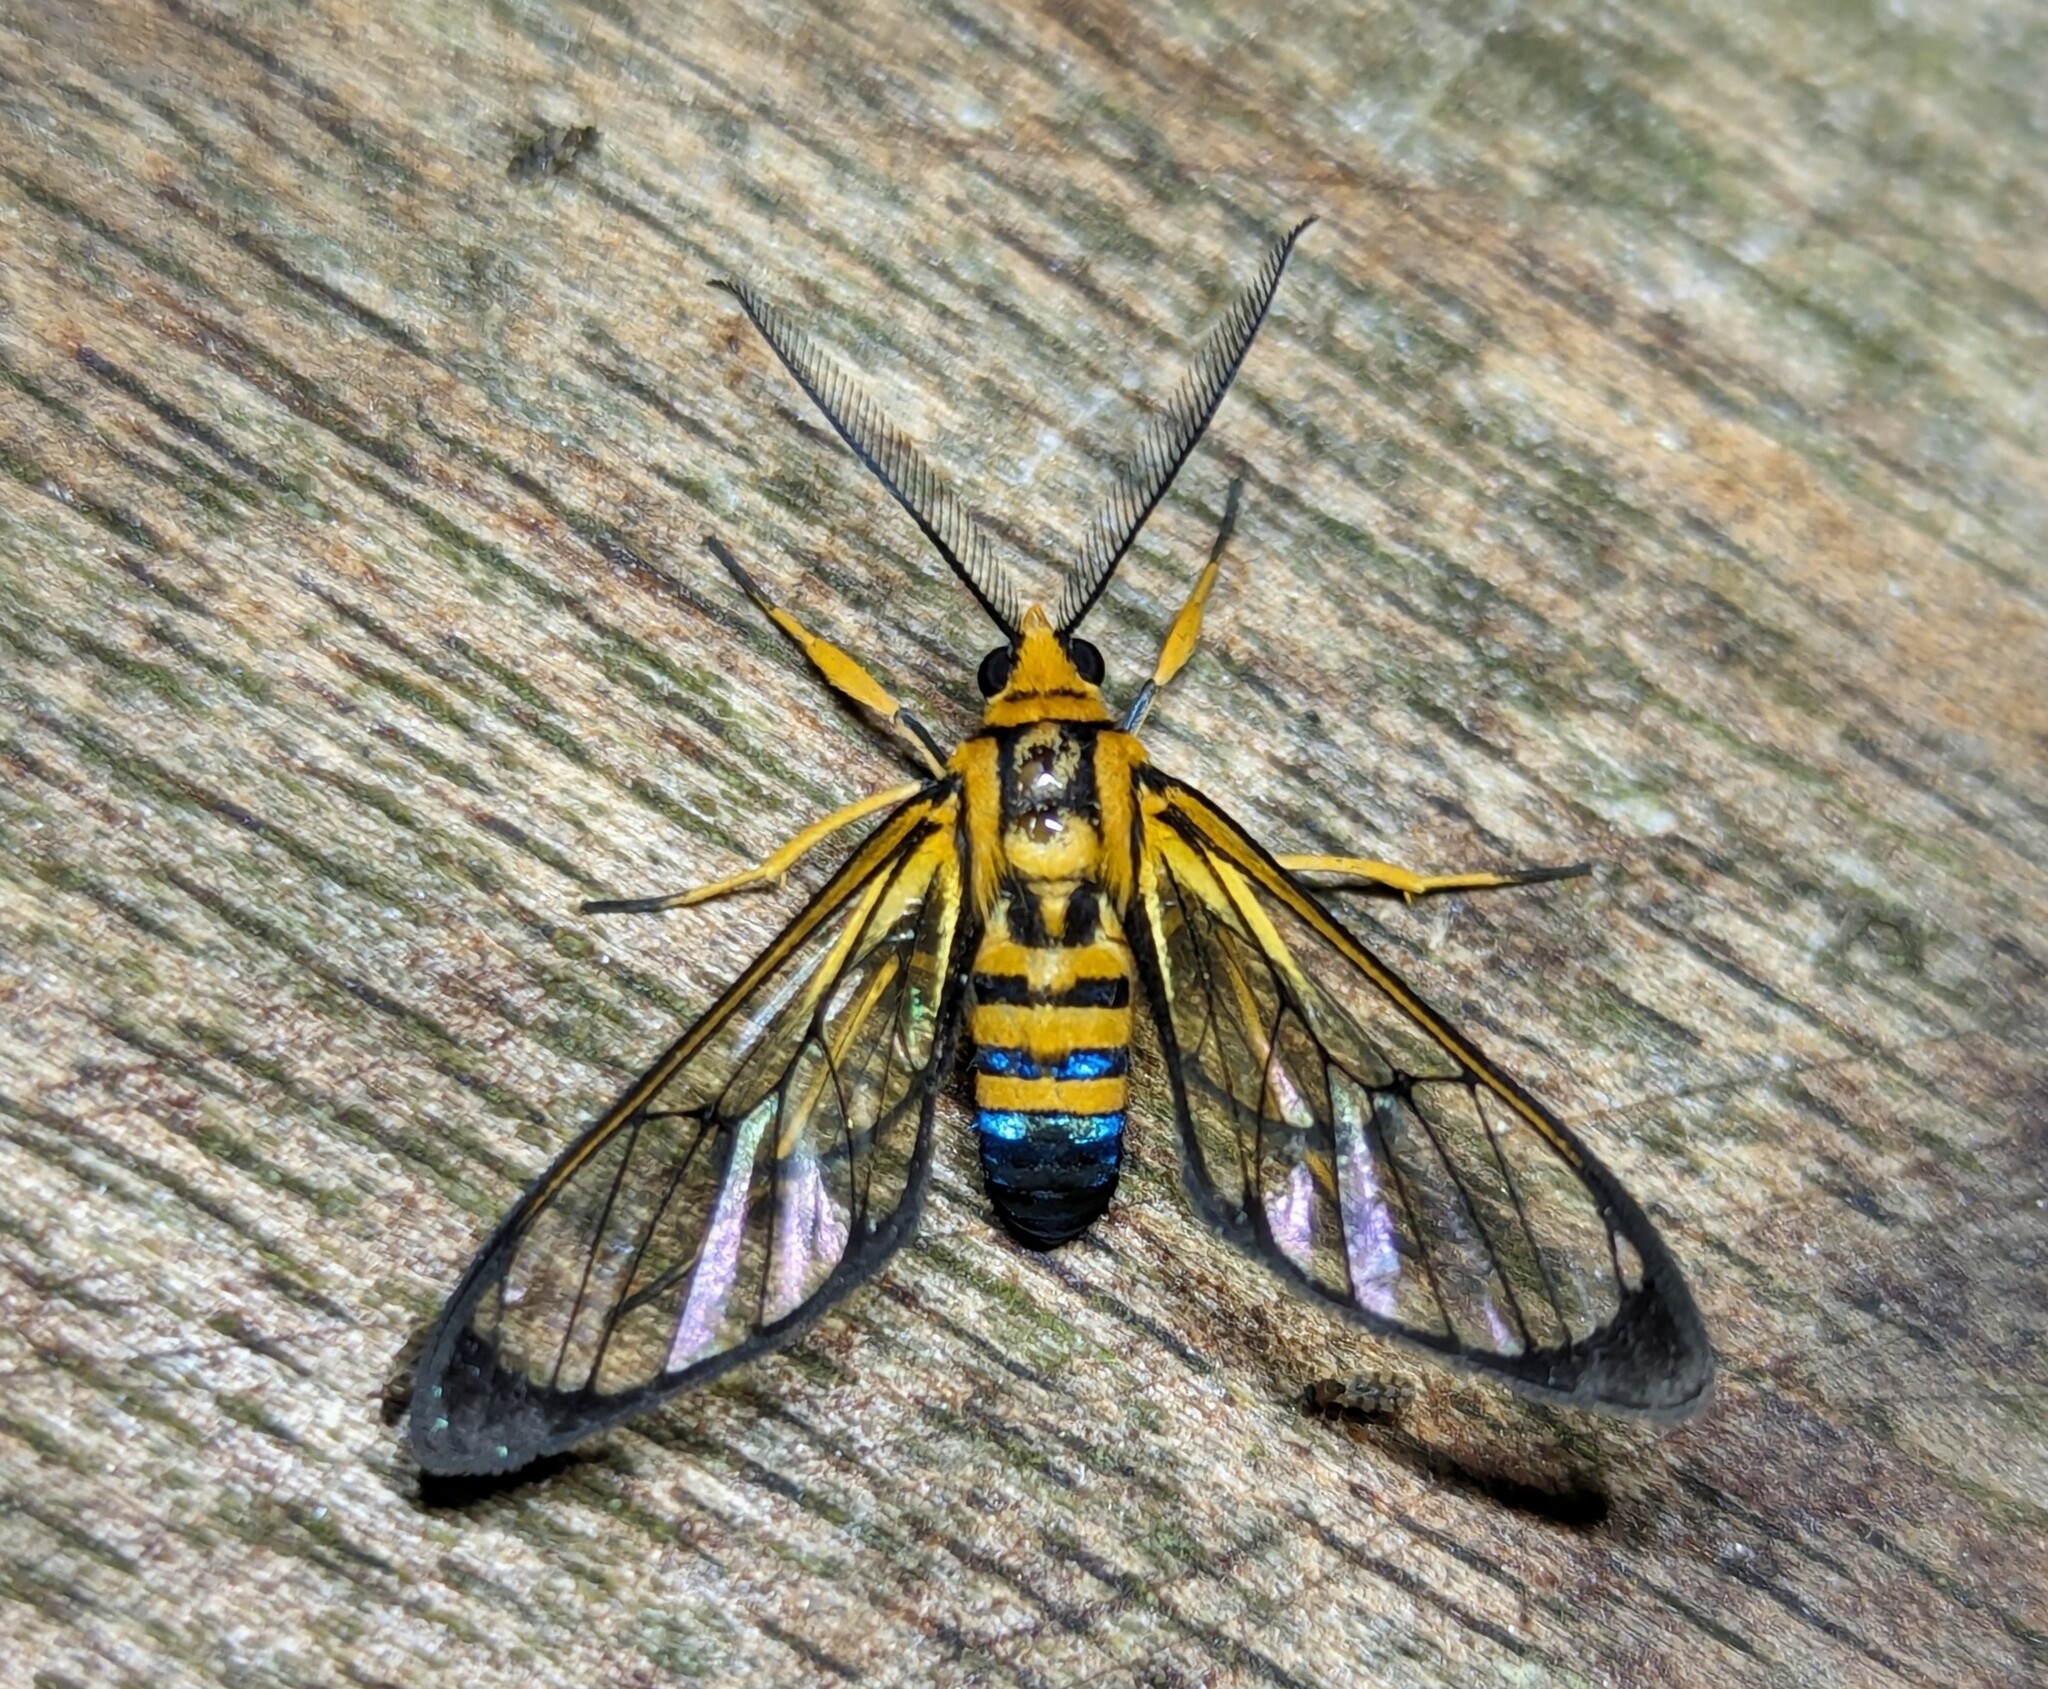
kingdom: Animalia
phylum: Arthropoda
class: Insecta
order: Lepidoptera
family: Erebidae
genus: Mesothen
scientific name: Mesothen nomia
